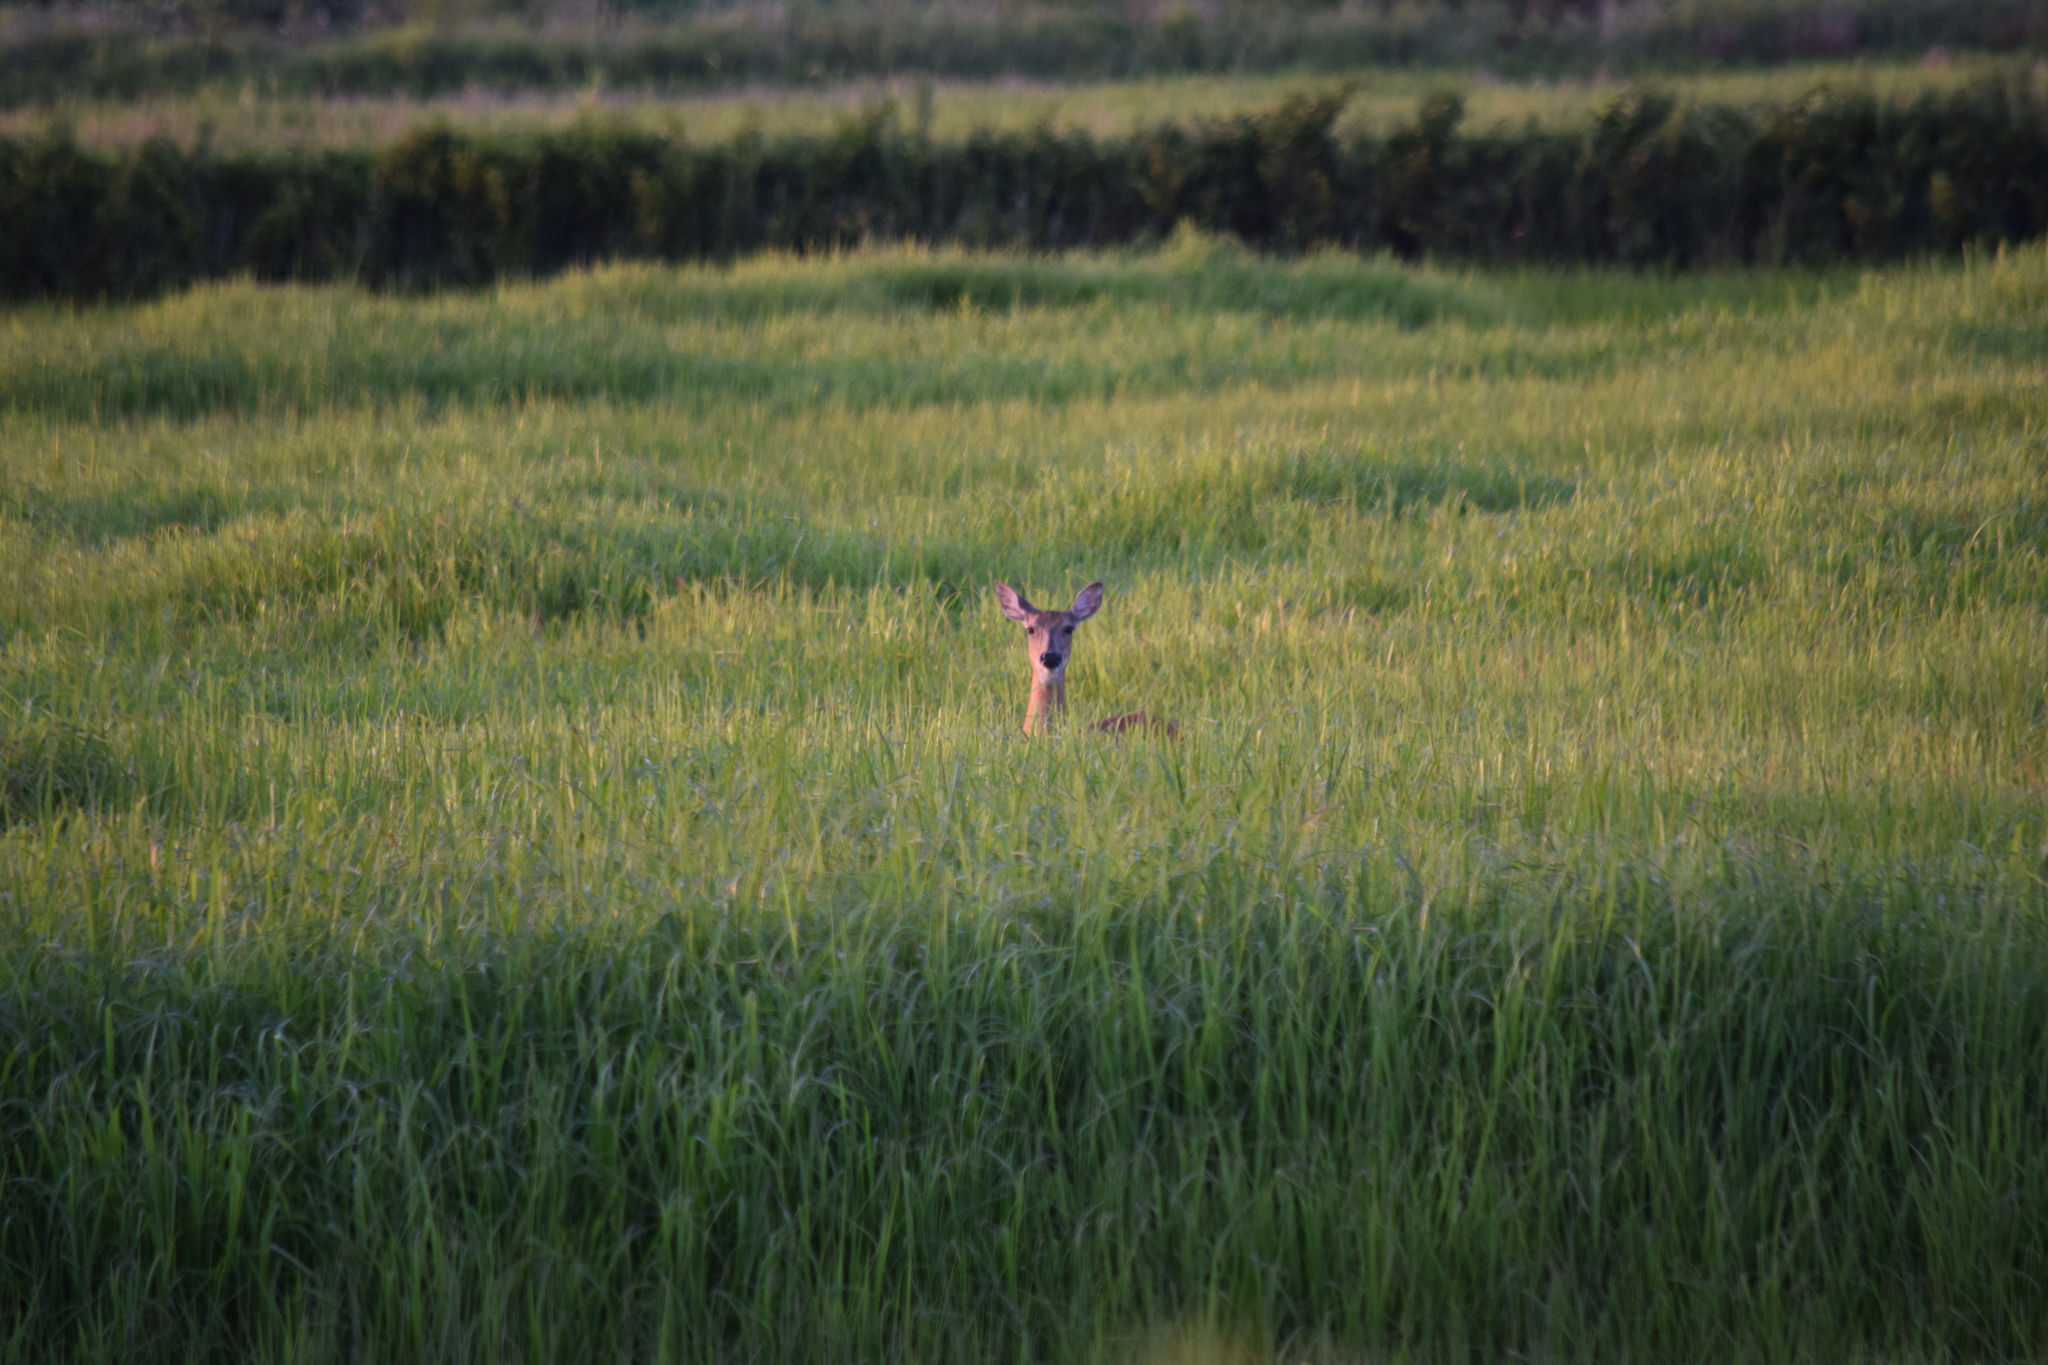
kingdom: Animalia
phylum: Chordata
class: Mammalia
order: Artiodactyla
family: Cervidae
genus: Odocoileus
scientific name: Odocoileus virginianus
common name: White-tailed deer
